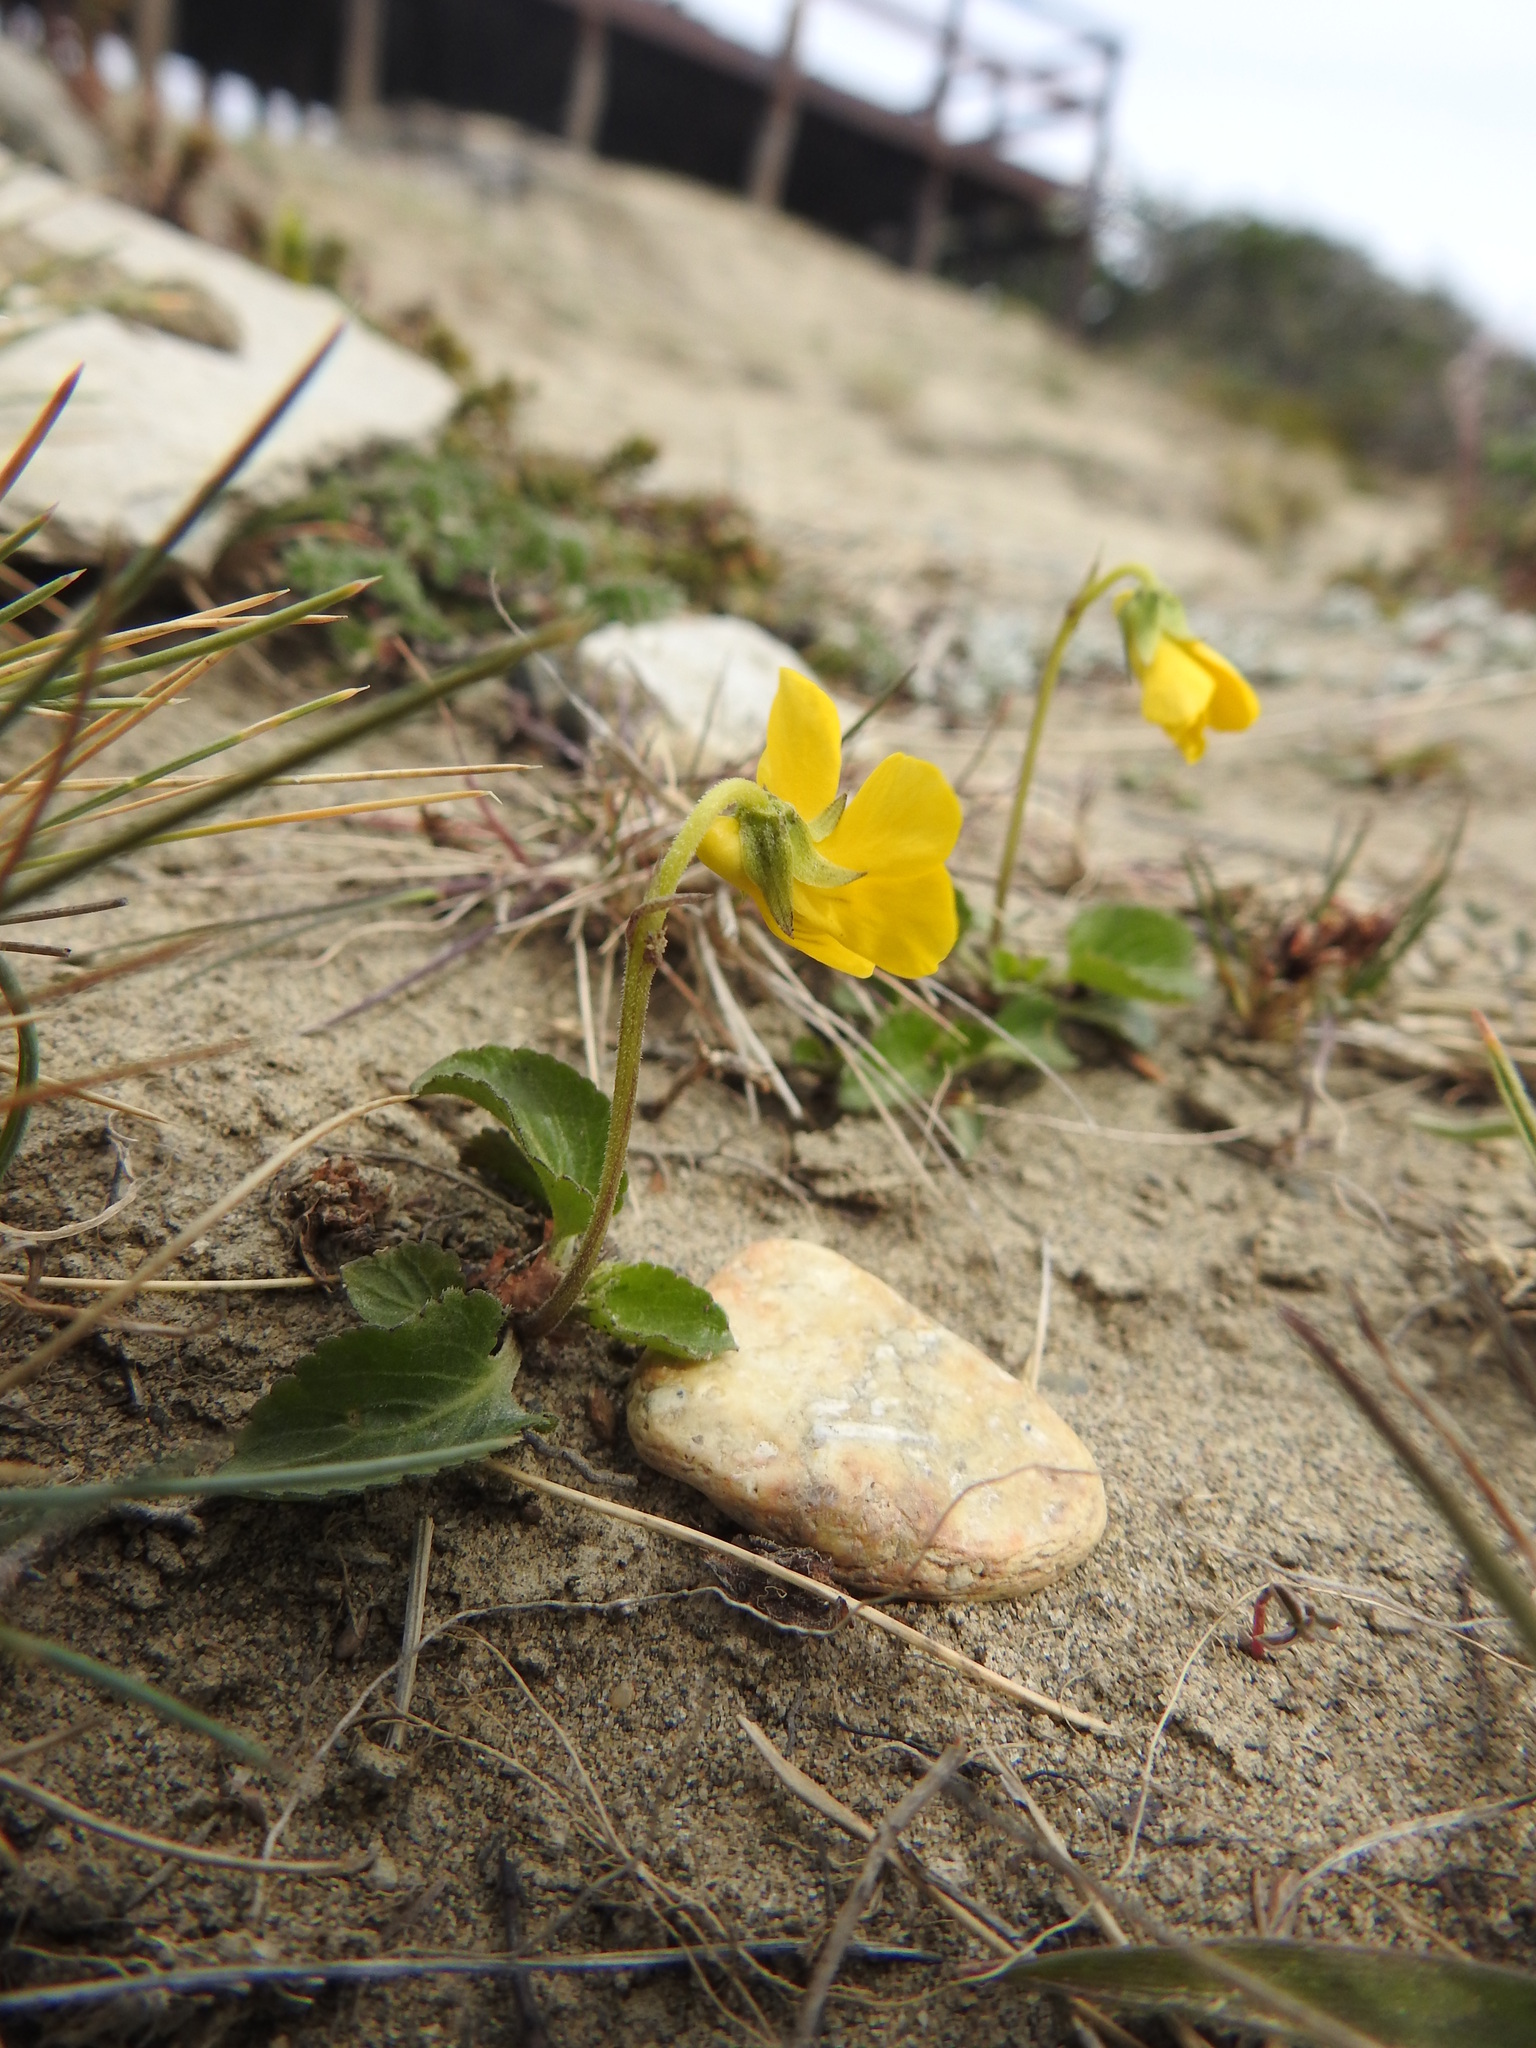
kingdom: Plantae
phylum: Tracheophyta
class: Magnoliopsida
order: Malpighiales
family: Violaceae
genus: Viola
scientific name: Viola maculata
